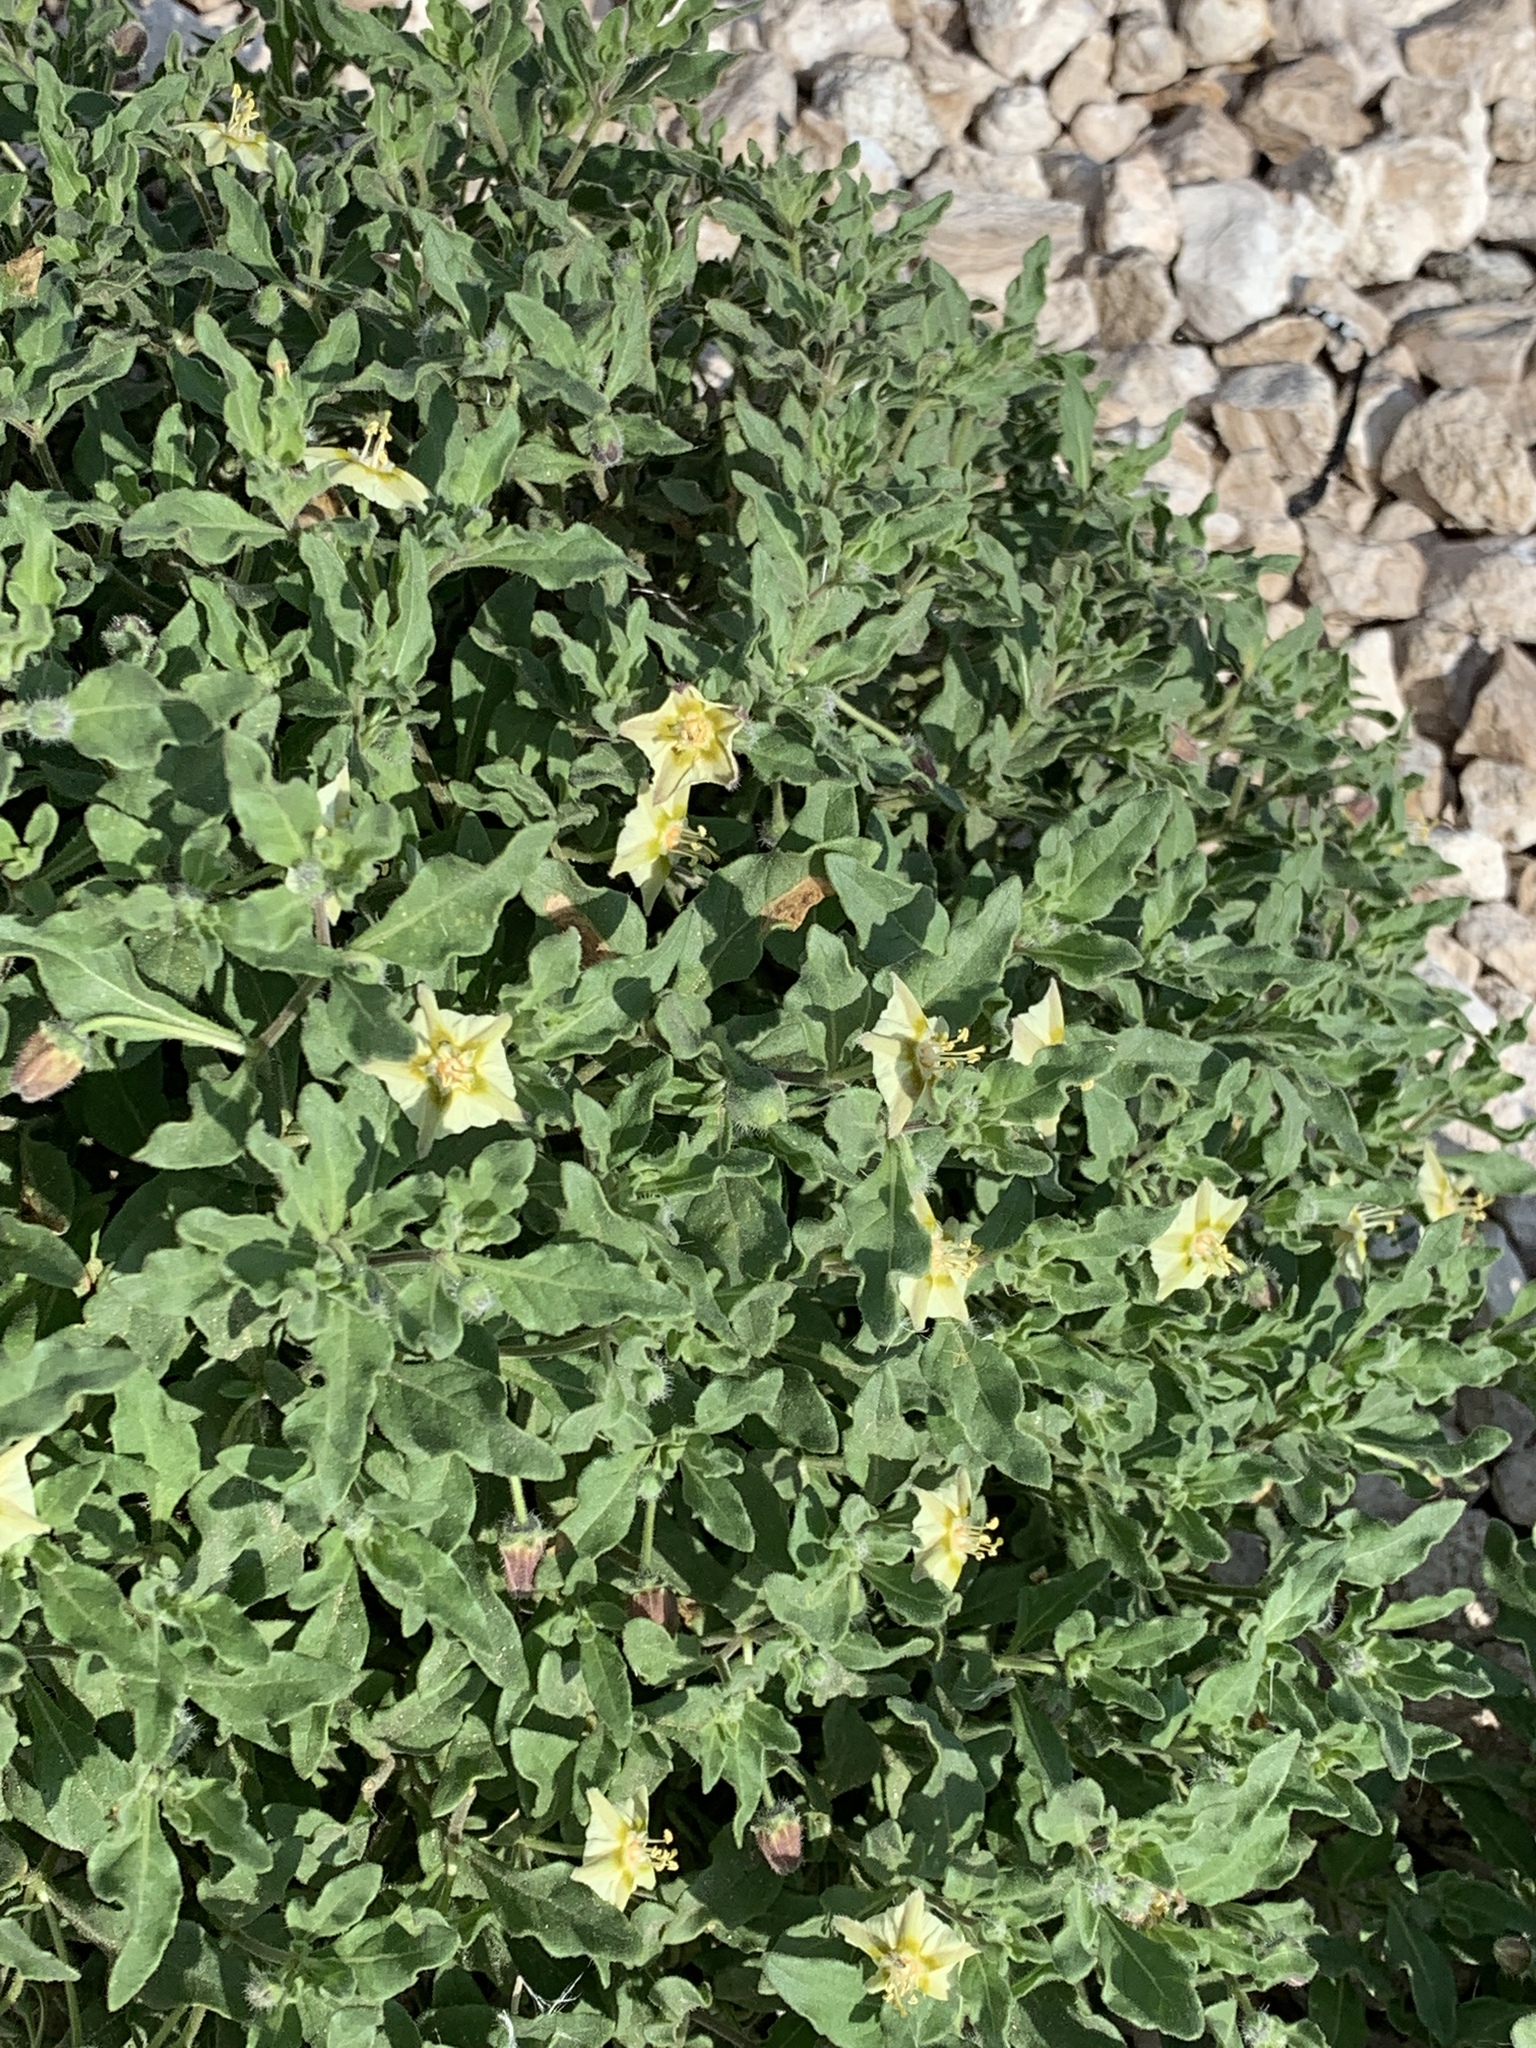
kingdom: Plantae
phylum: Tracheophyta
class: Magnoliopsida
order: Solanales
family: Solanaceae
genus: Chamaesaracha
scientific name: Chamaesaracha sordida
